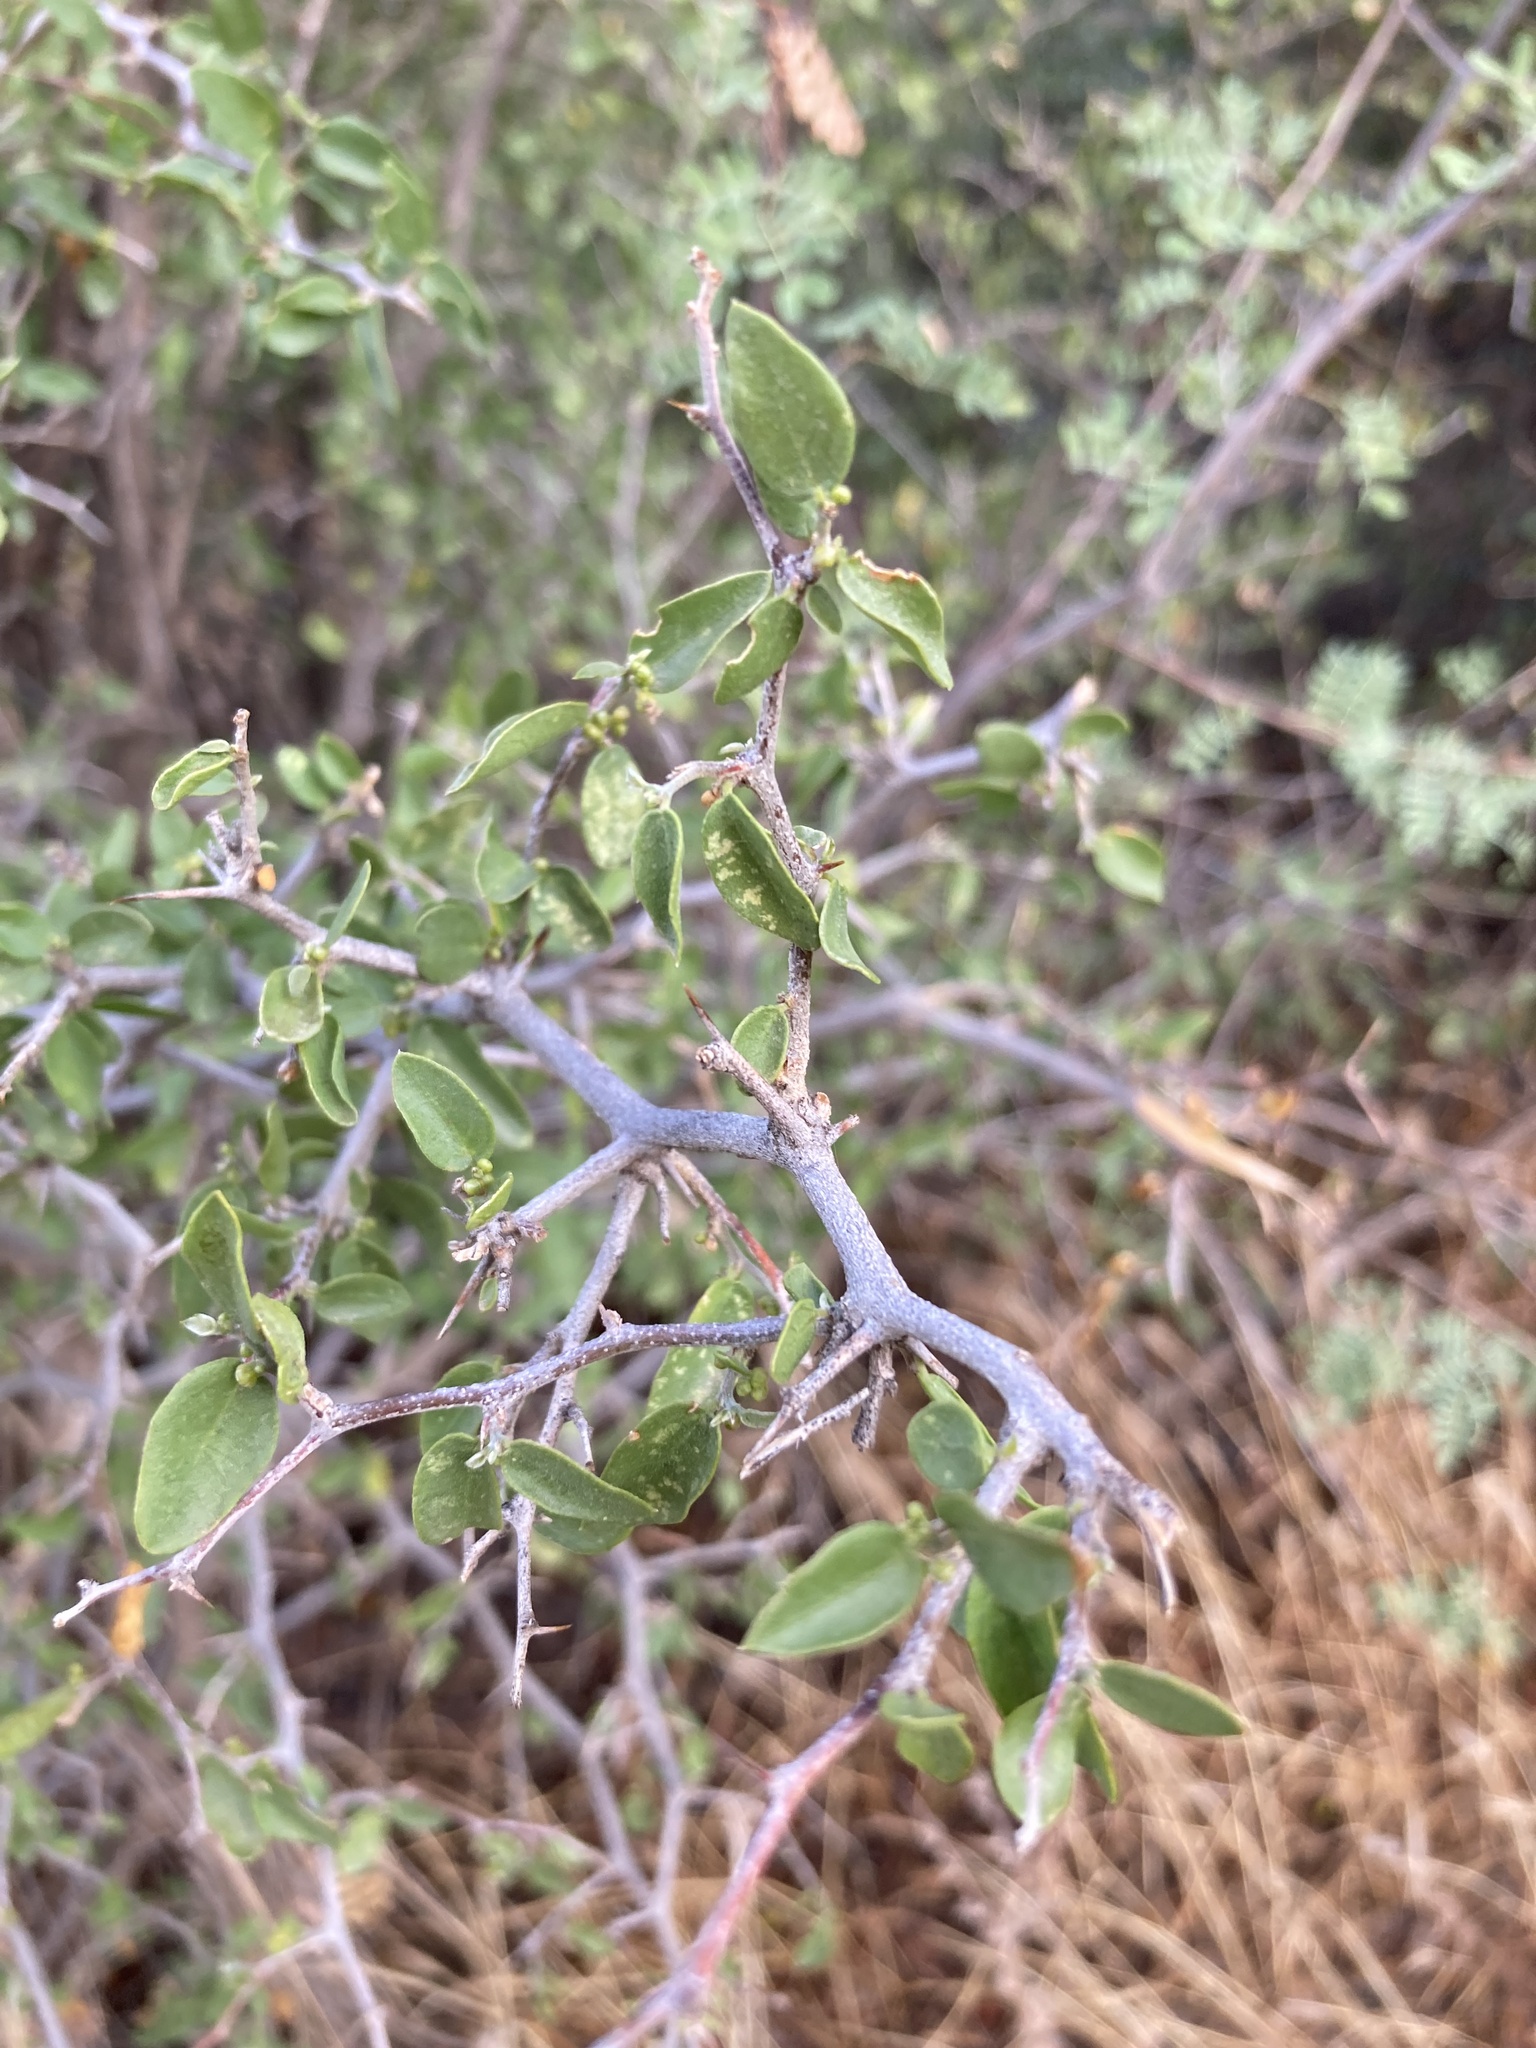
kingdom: Plantae
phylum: Tracheophyta
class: Magnoliopsida
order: Rosales
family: Cannabaceae
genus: Celtis
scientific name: Celtis pallida
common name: Desert hackberry
